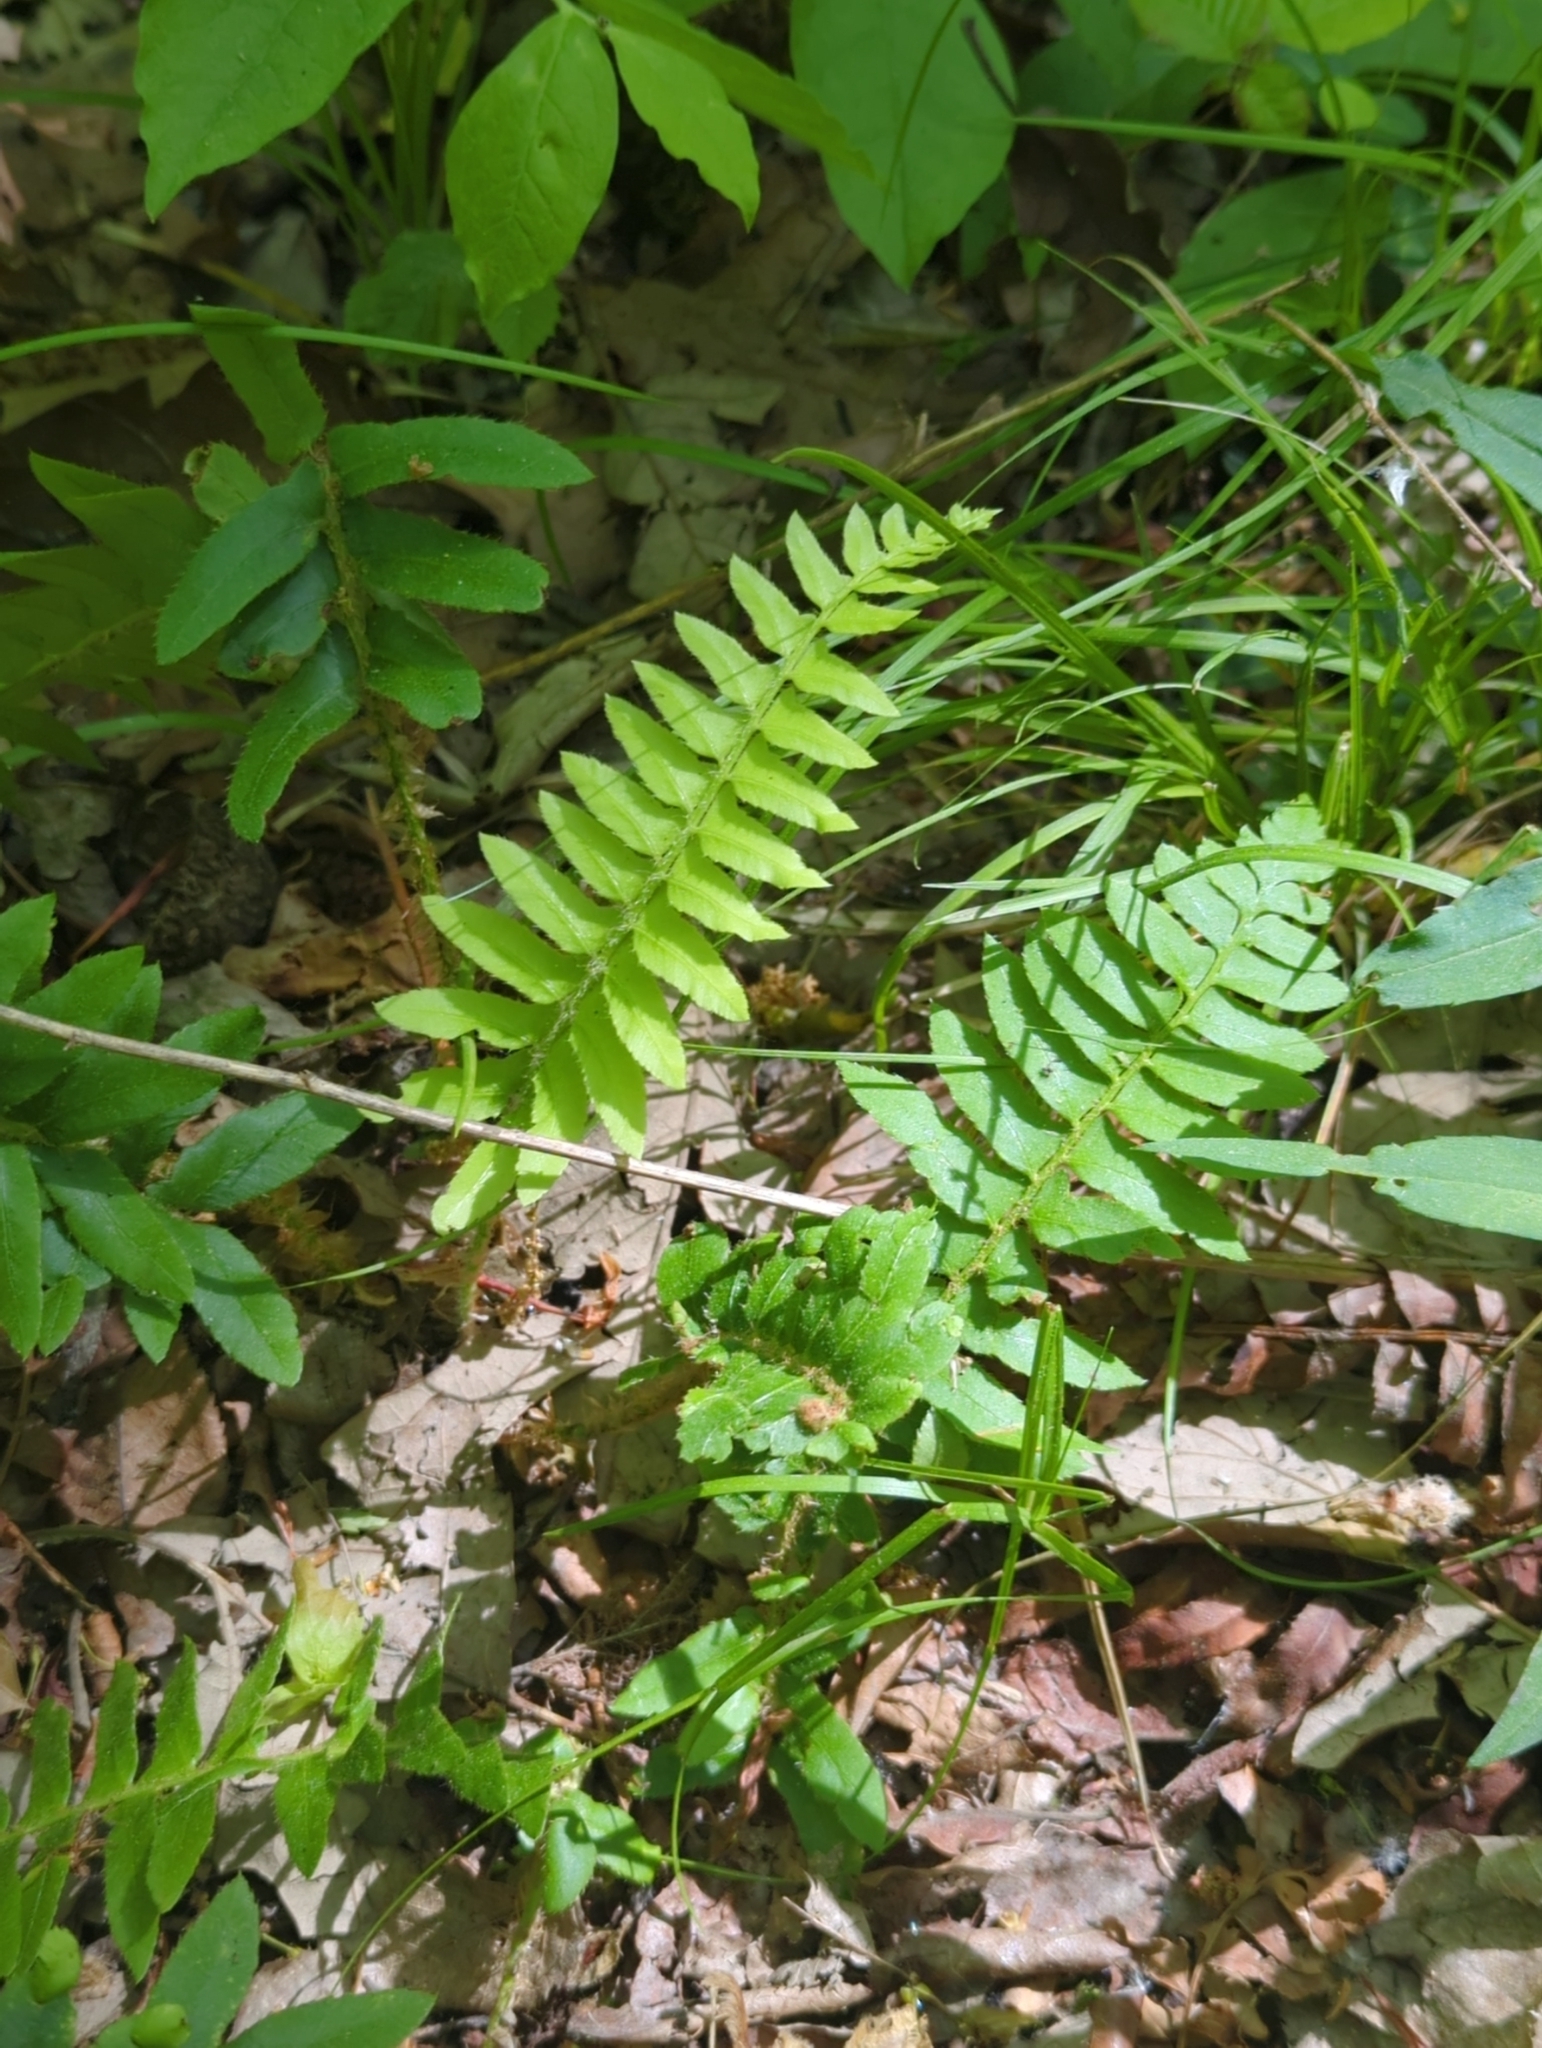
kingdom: Plantae
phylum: Tracheophyta
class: Polypodiopsida
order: Polypodiales
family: Dryopteridaceae
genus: Polystichum
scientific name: Polystichum acrostichoides
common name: Christmas fern
